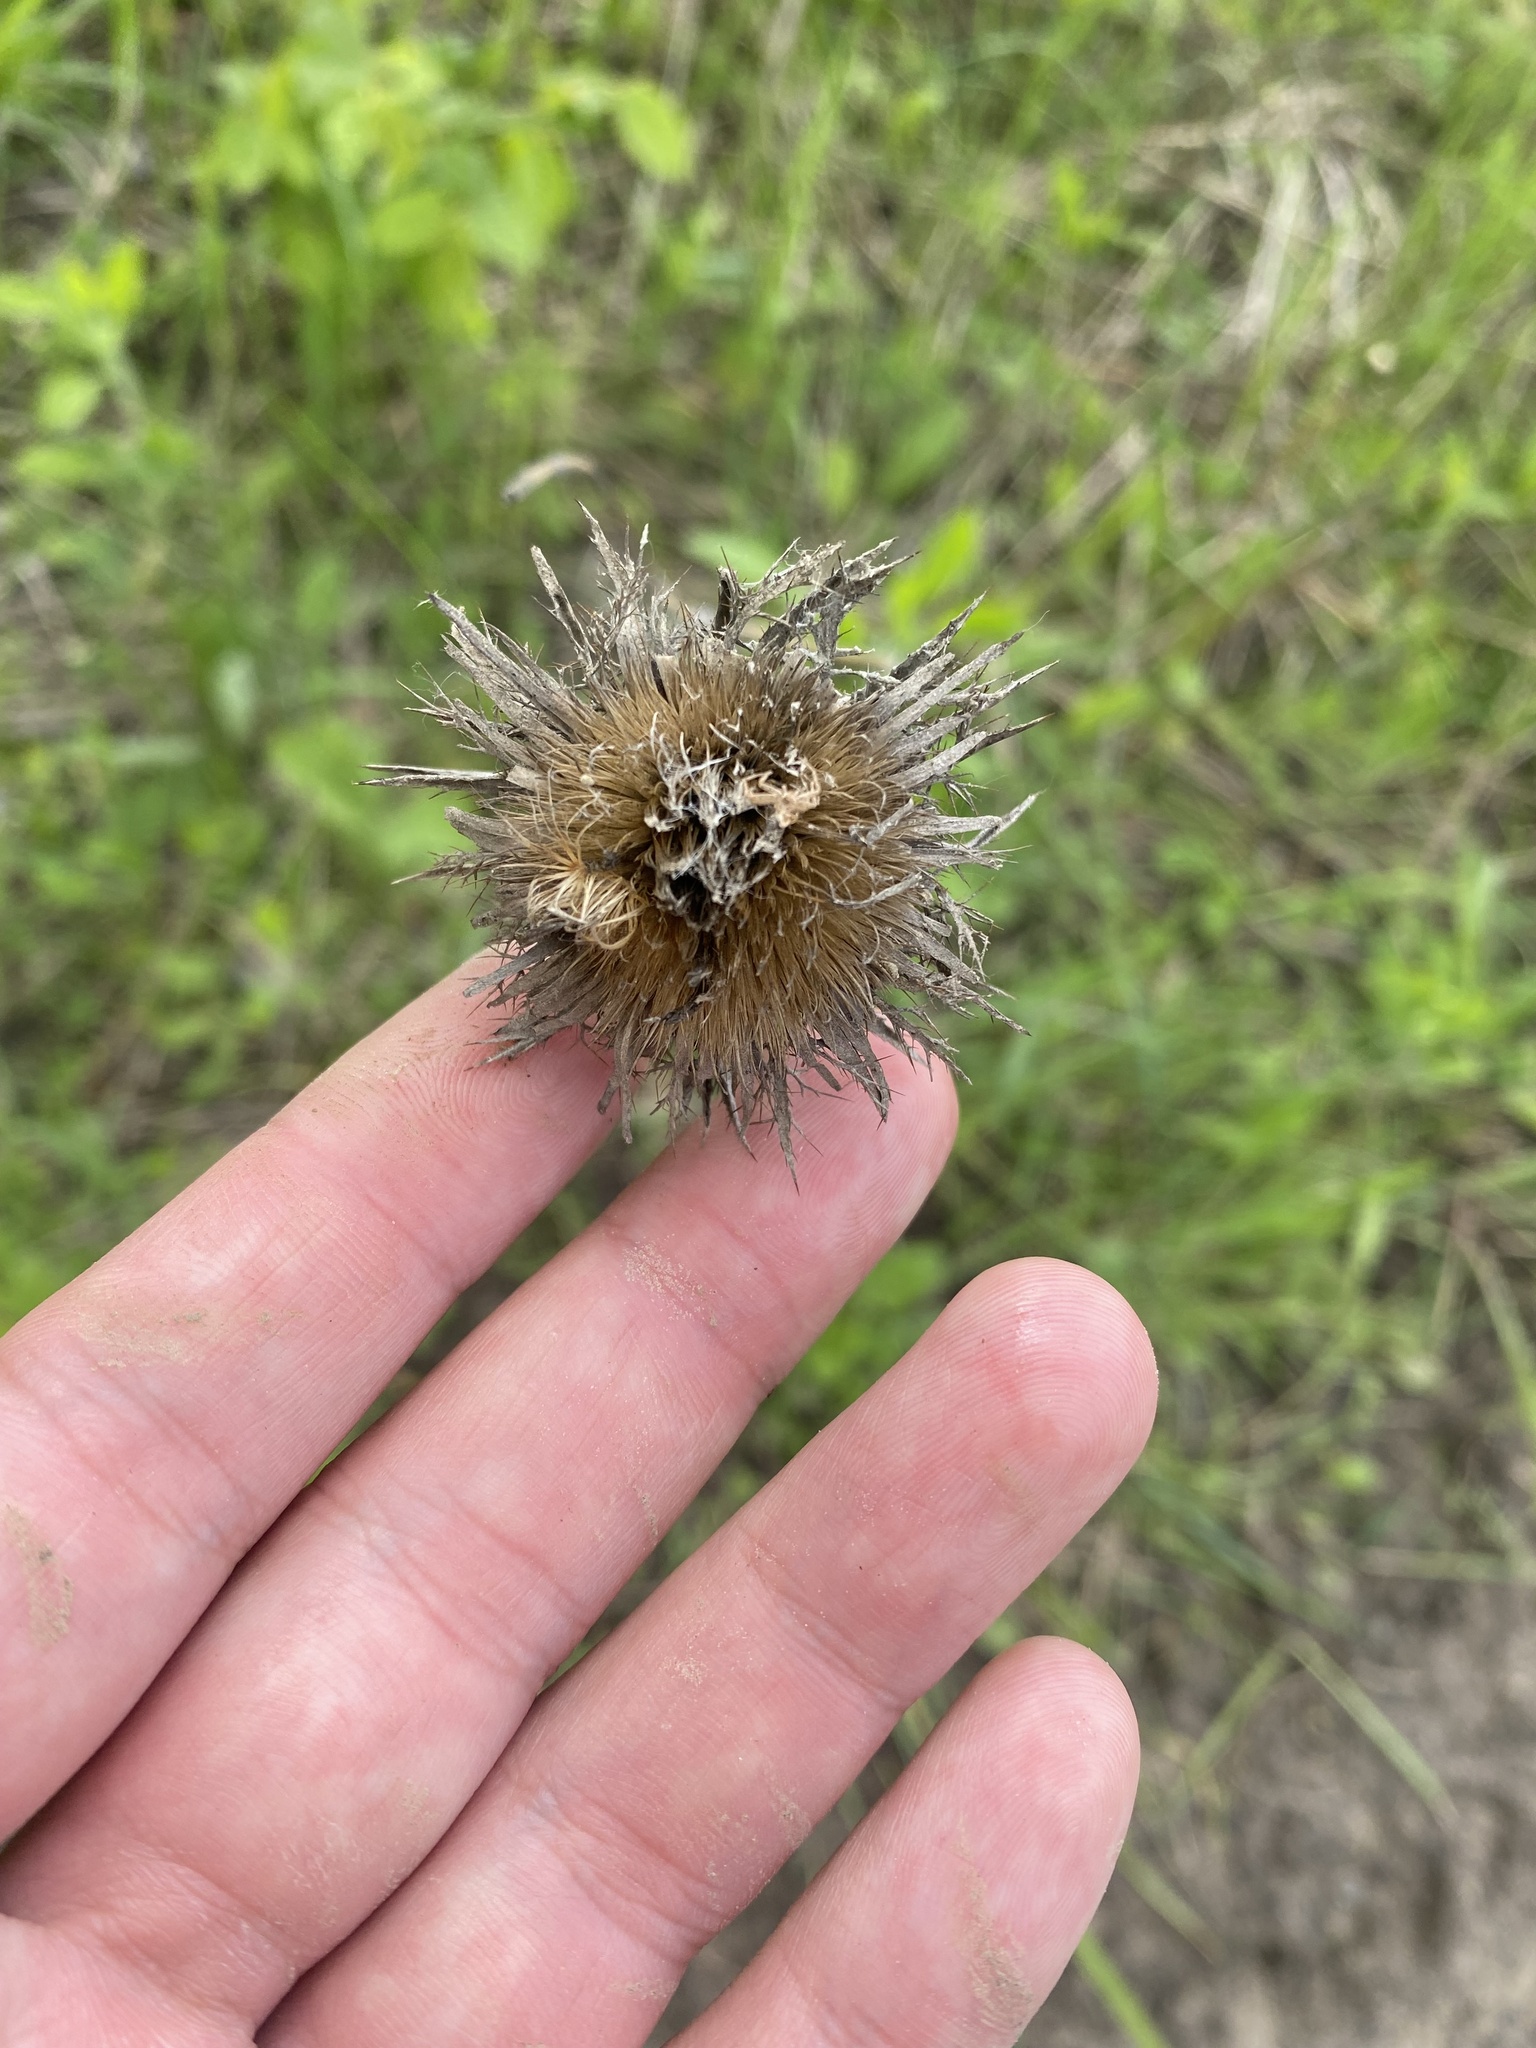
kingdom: Plantae
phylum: Tracheophyta
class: Magnoliopsida
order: Asterales
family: Asteraceae
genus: Carlina
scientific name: Carlina biebersteinii
